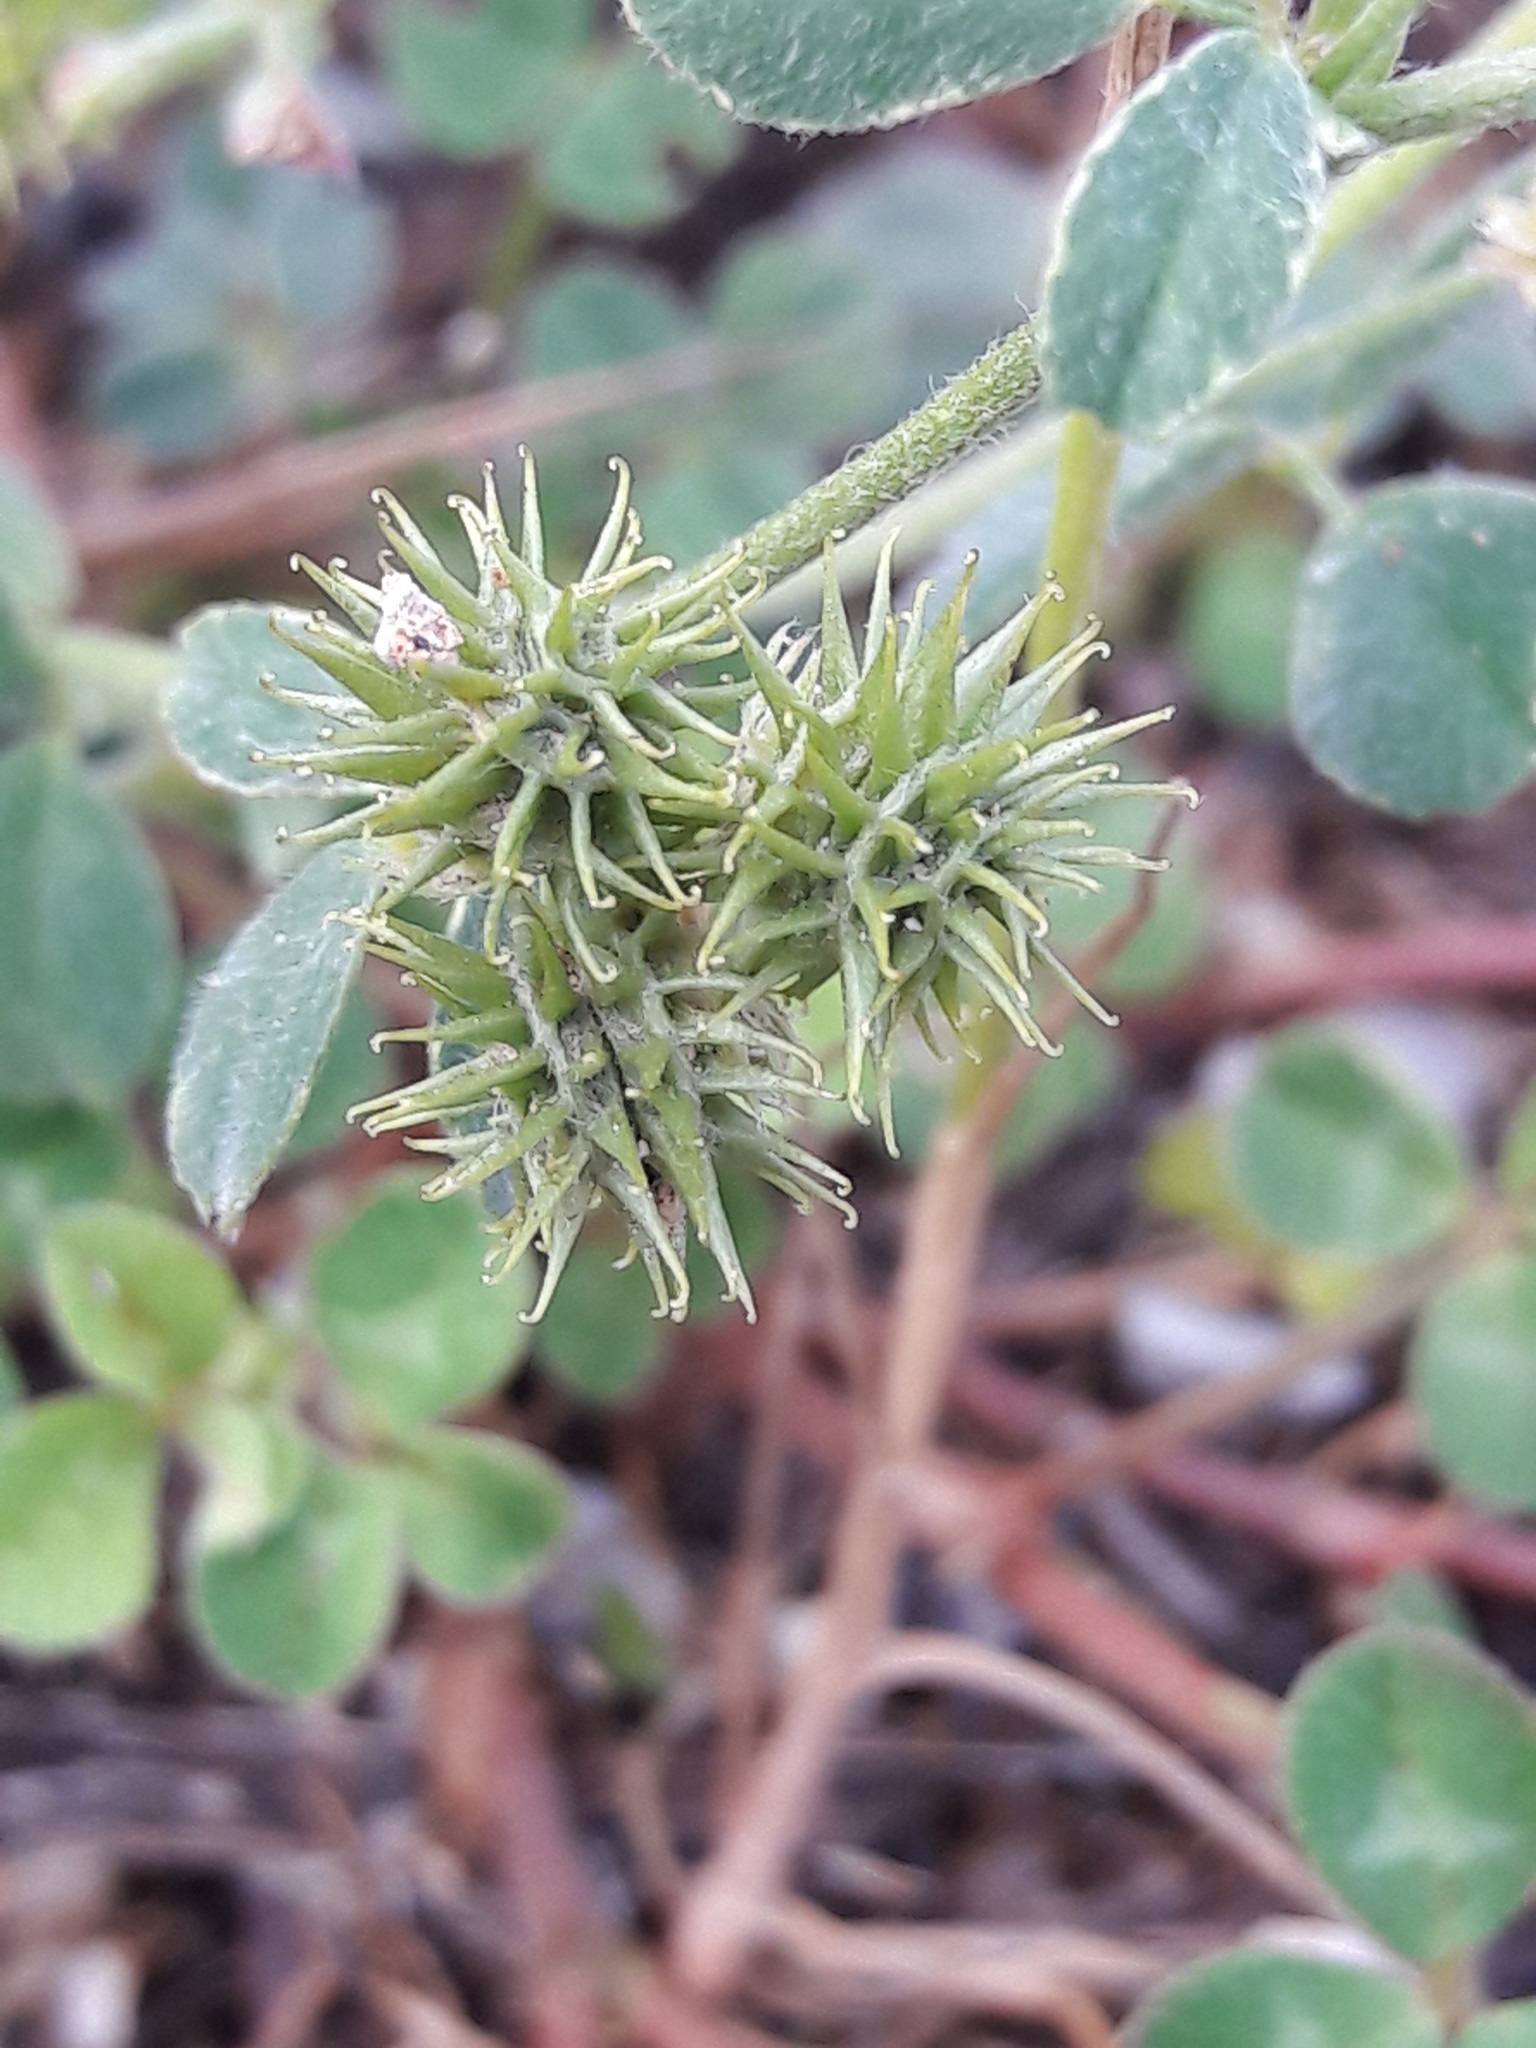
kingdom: Plantae
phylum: Tracheophyta
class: Magnoliopsida
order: Fabales
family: Fabaceae
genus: Trifolium
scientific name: Trifolium campestre
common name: Field clover
